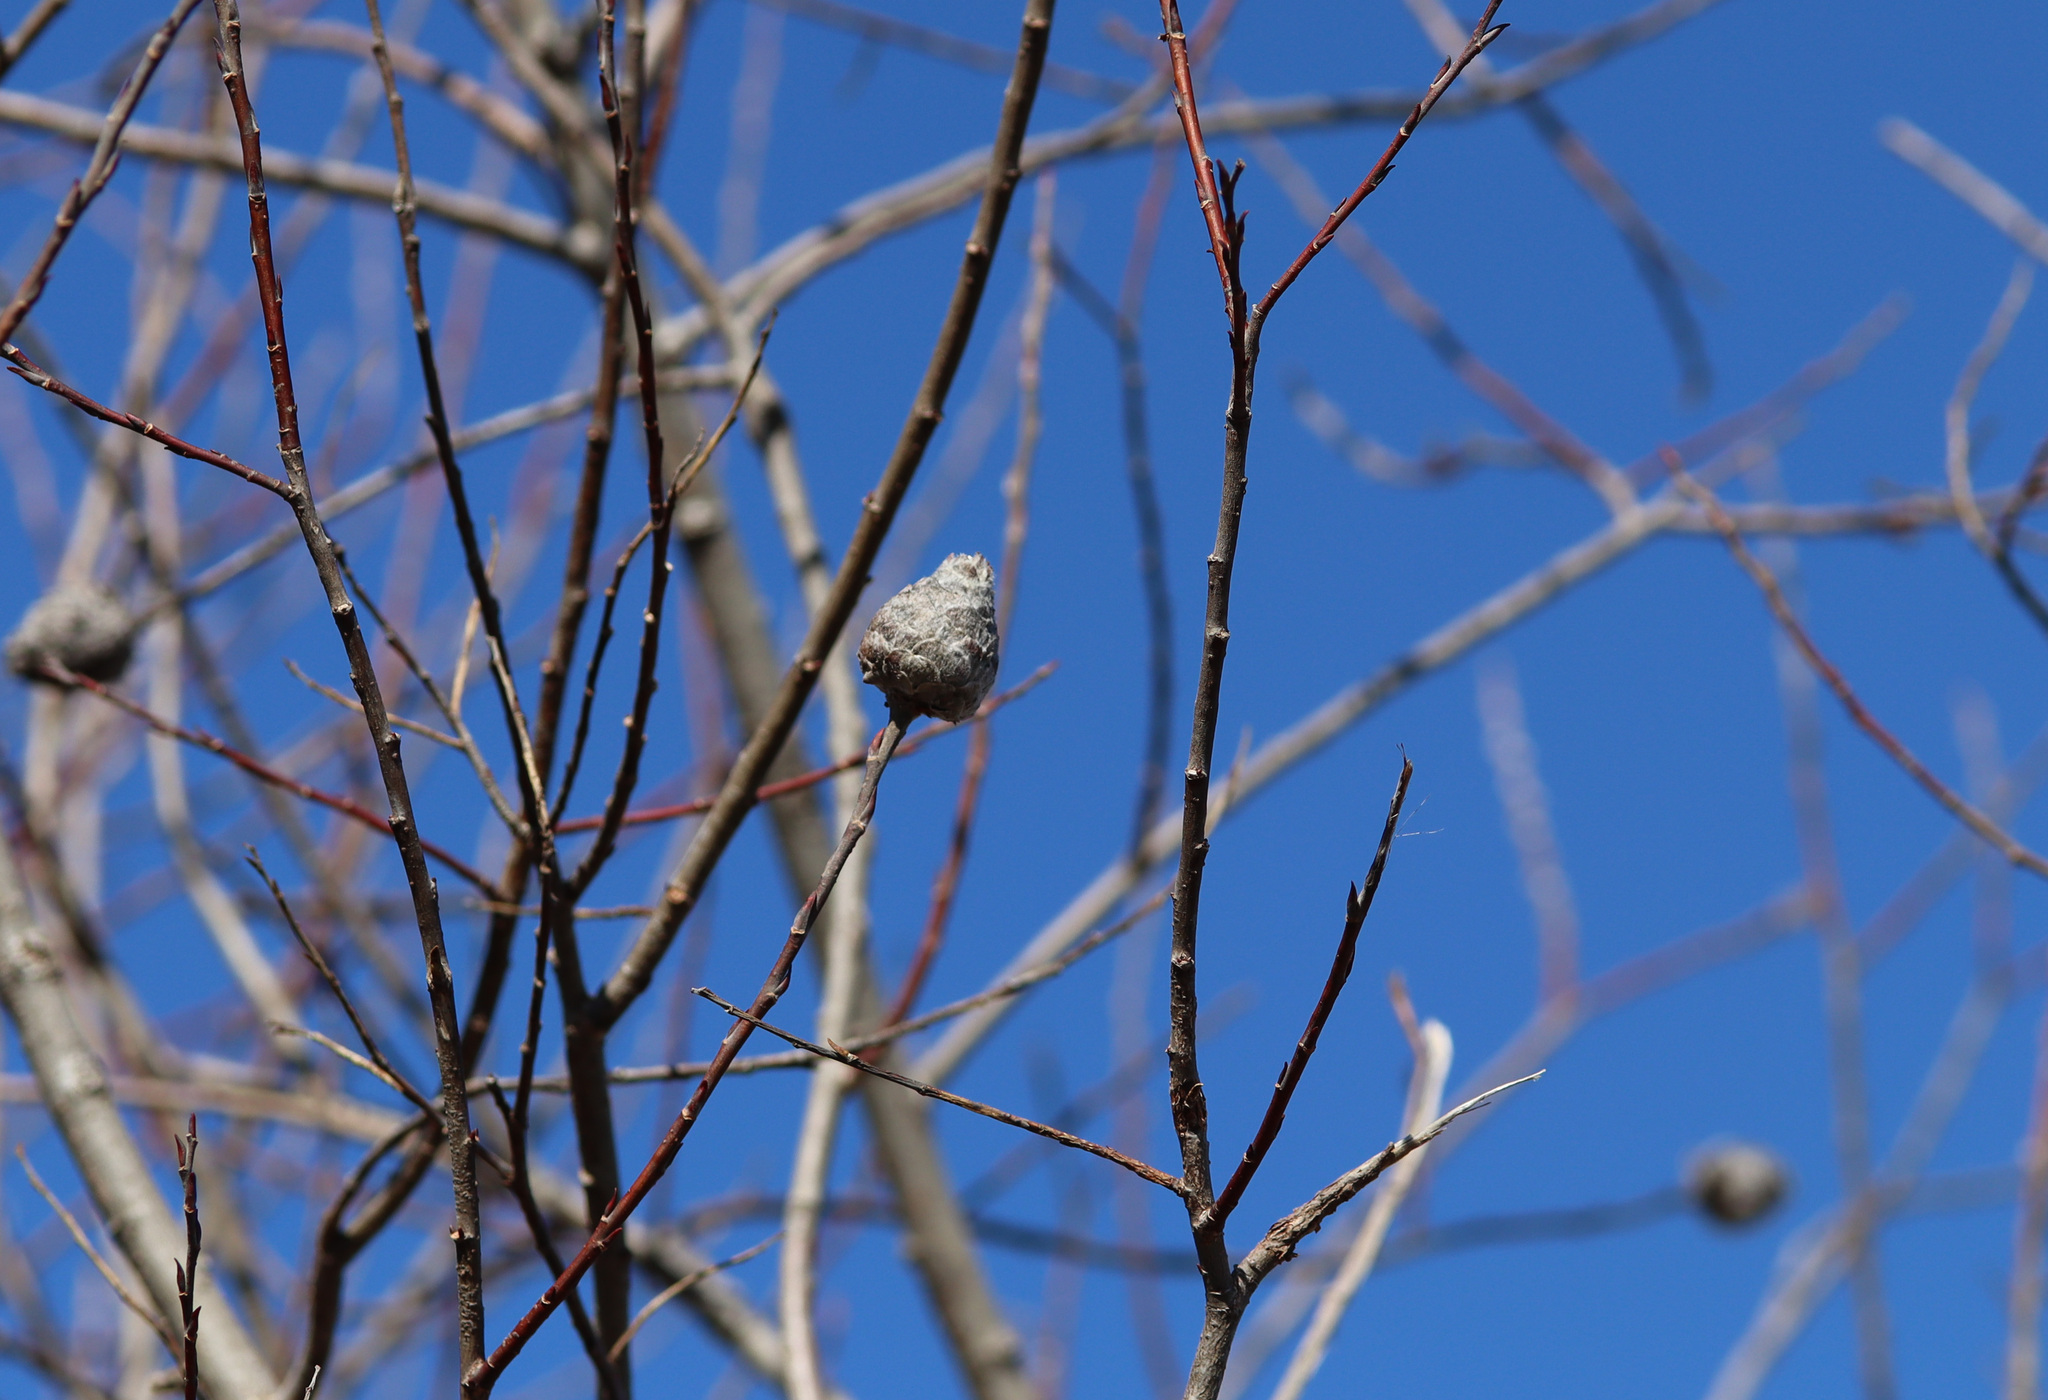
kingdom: Animalia
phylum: Arthropoda
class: Insecta
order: Diptera
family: Cecidomyiidae
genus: Rabdophaga
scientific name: Rabdophaga strobiloides
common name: Willow pinecone gall midge
